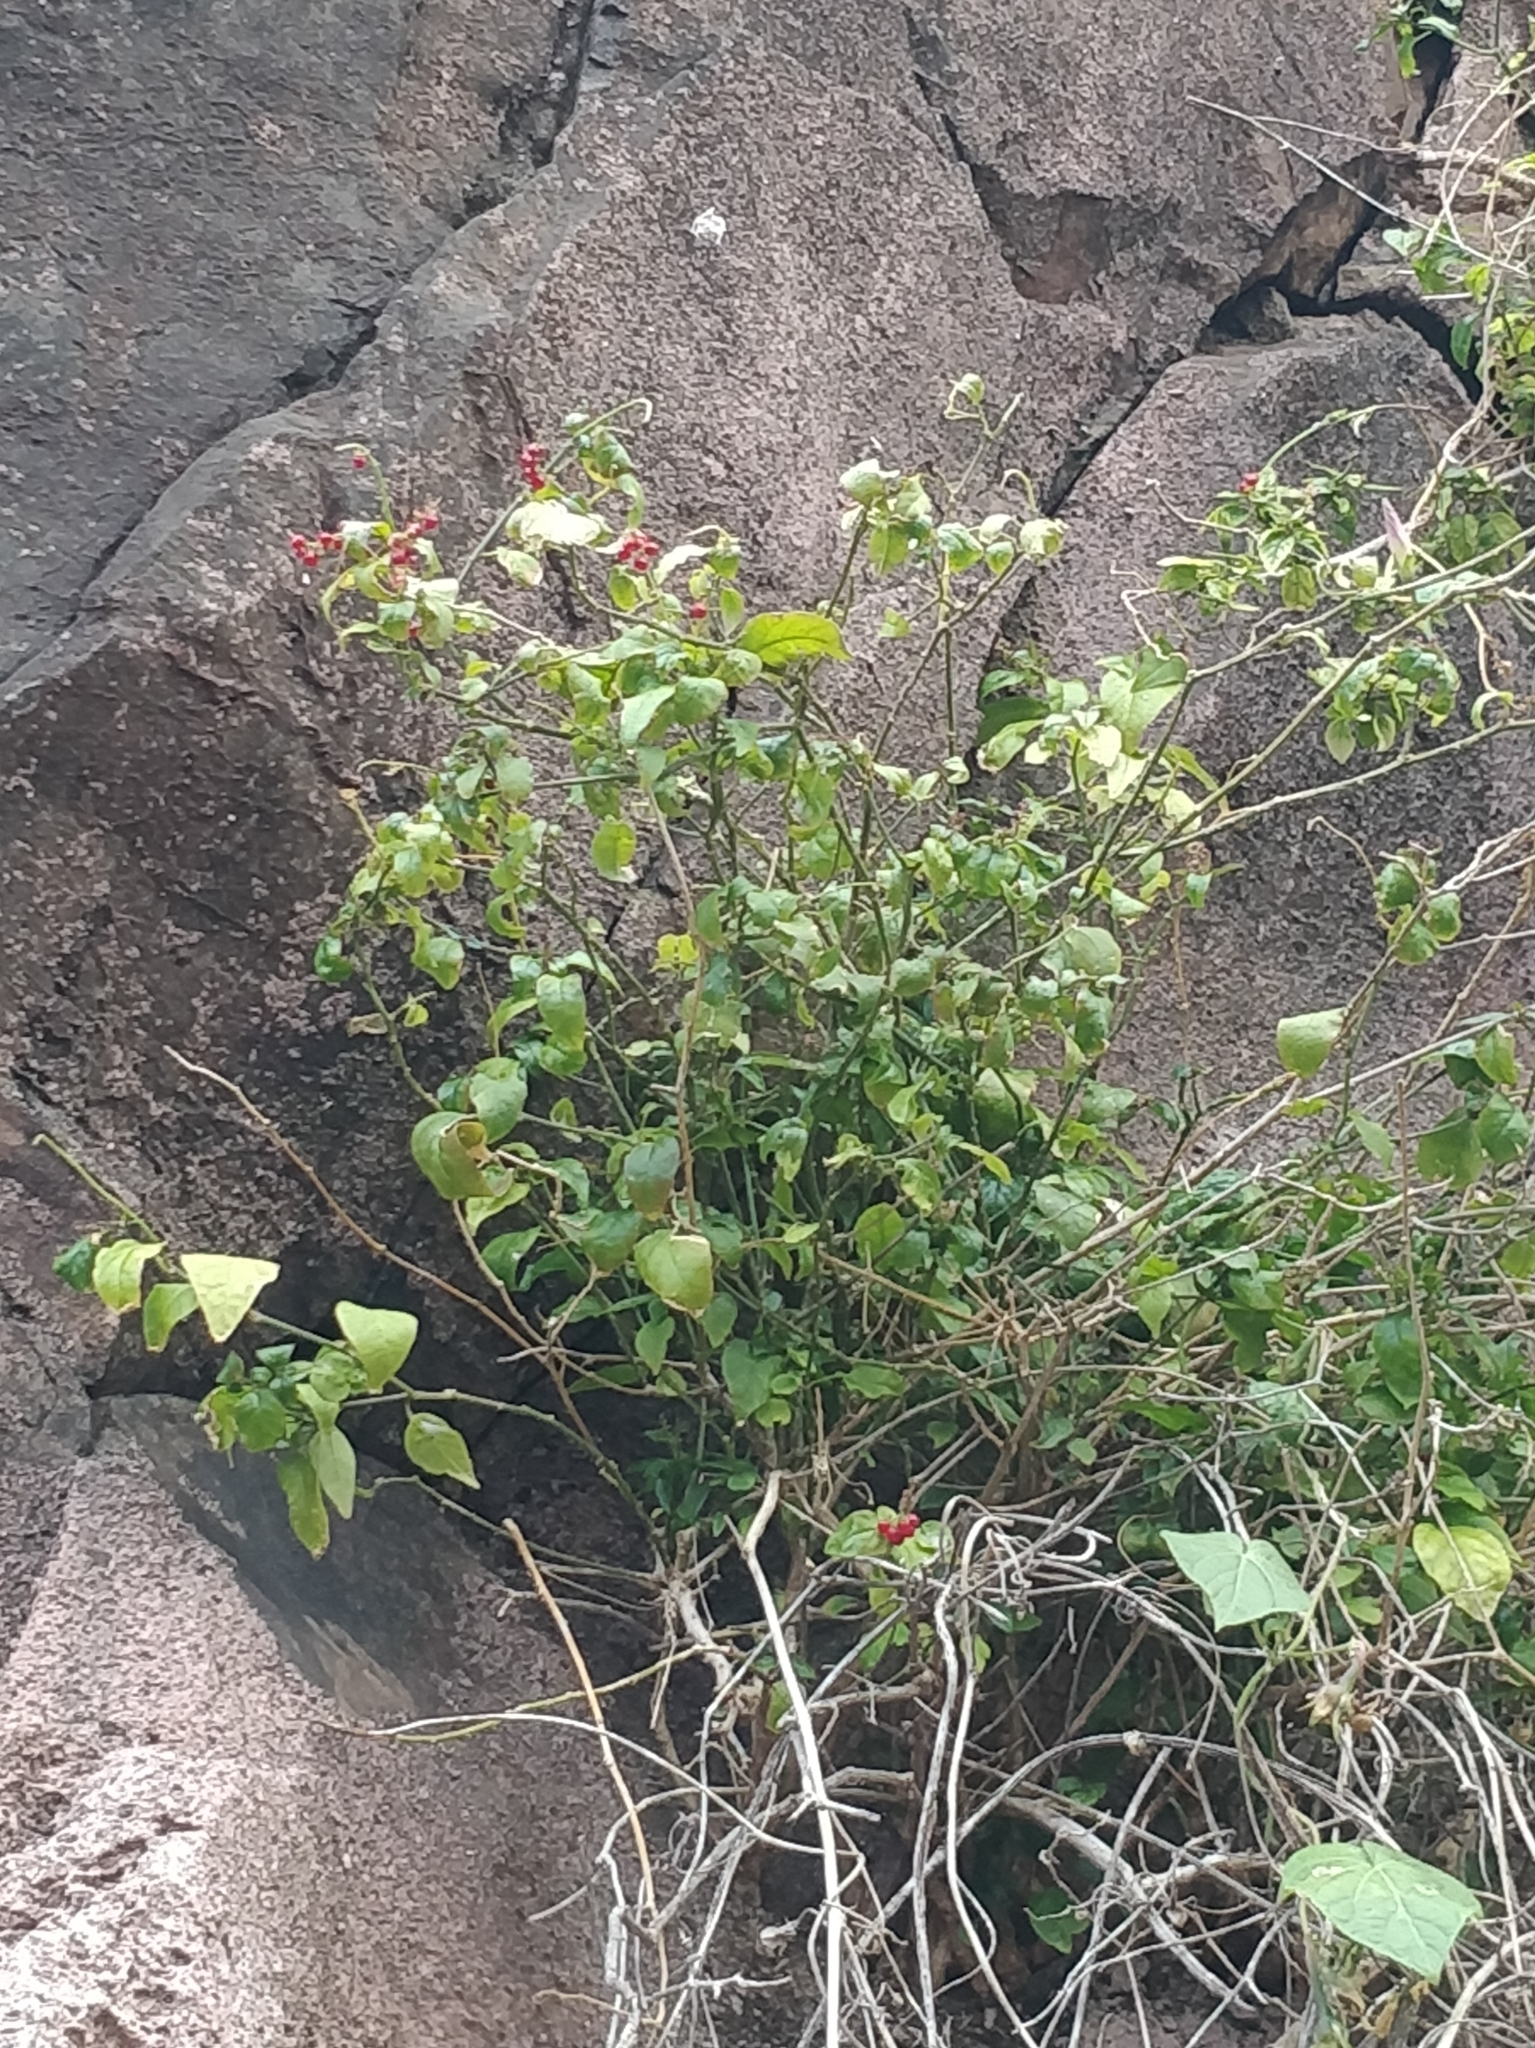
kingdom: Plantae
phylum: Tracheophyta
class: Magnoliopsida
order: Caryophyllales
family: Phytolaccaceae
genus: Rivina
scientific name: Rivina humilis
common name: Rougeplant
